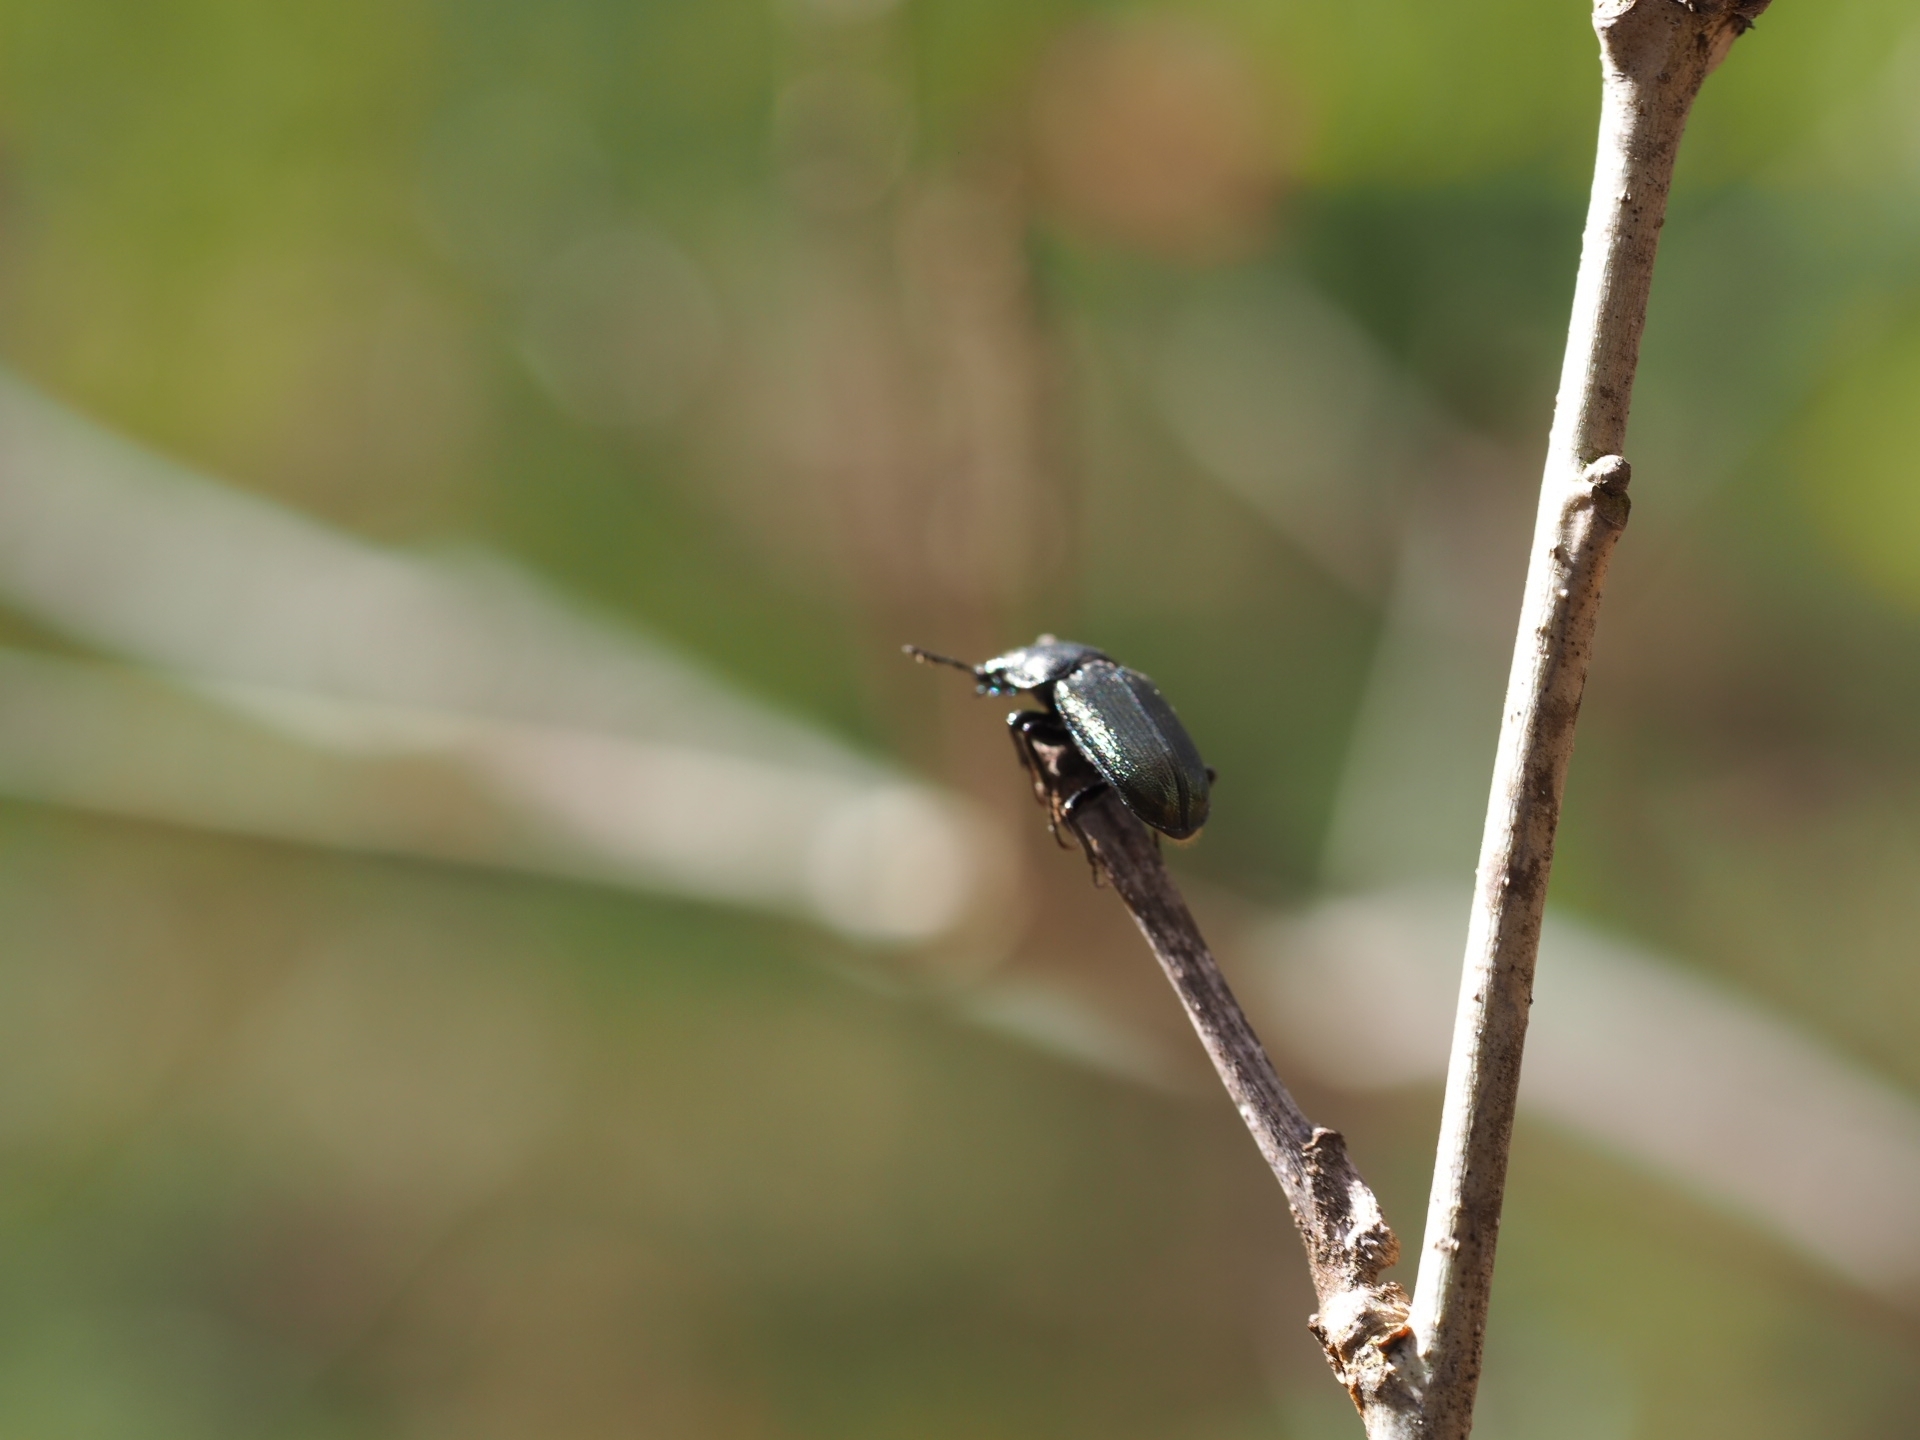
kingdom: Animalia
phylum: Arthropoda
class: Insecta
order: Coleoptera
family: Lucanidae
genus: Platycerus
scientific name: Platycerus quercus
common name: Oak stag beetle
